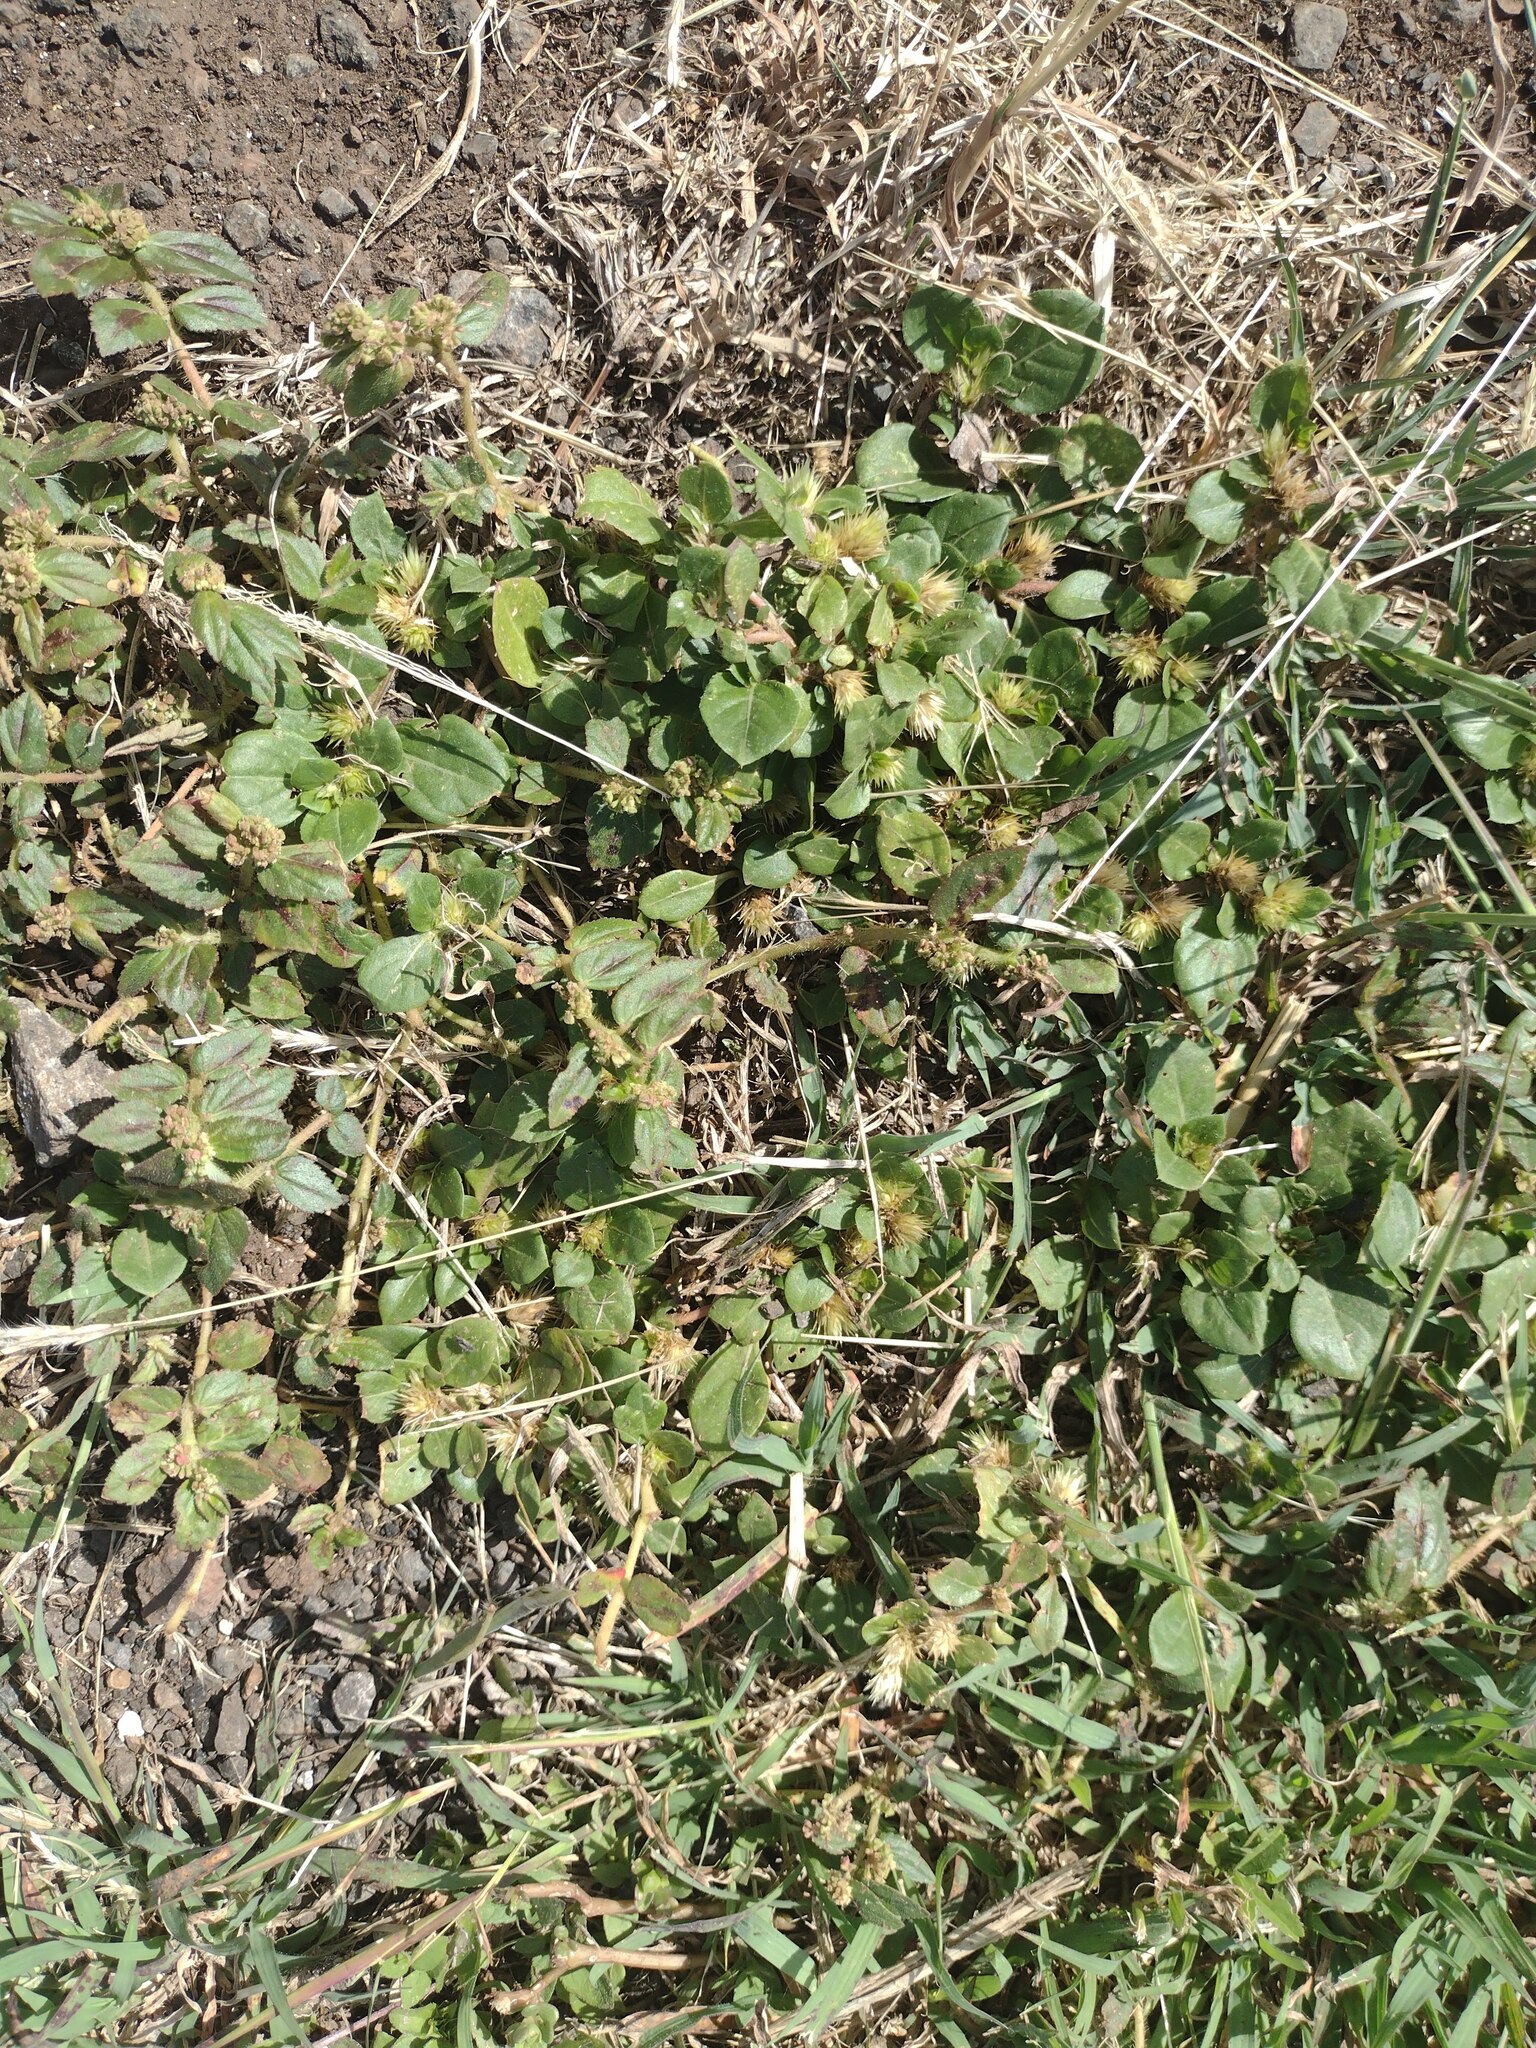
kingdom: Plantae
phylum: Tracheophyta
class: Magnoliopsida
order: Caryophyllales
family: Amaranthaceae
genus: Alternanthera
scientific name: Alternanthera pungens
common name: Khakiweed
